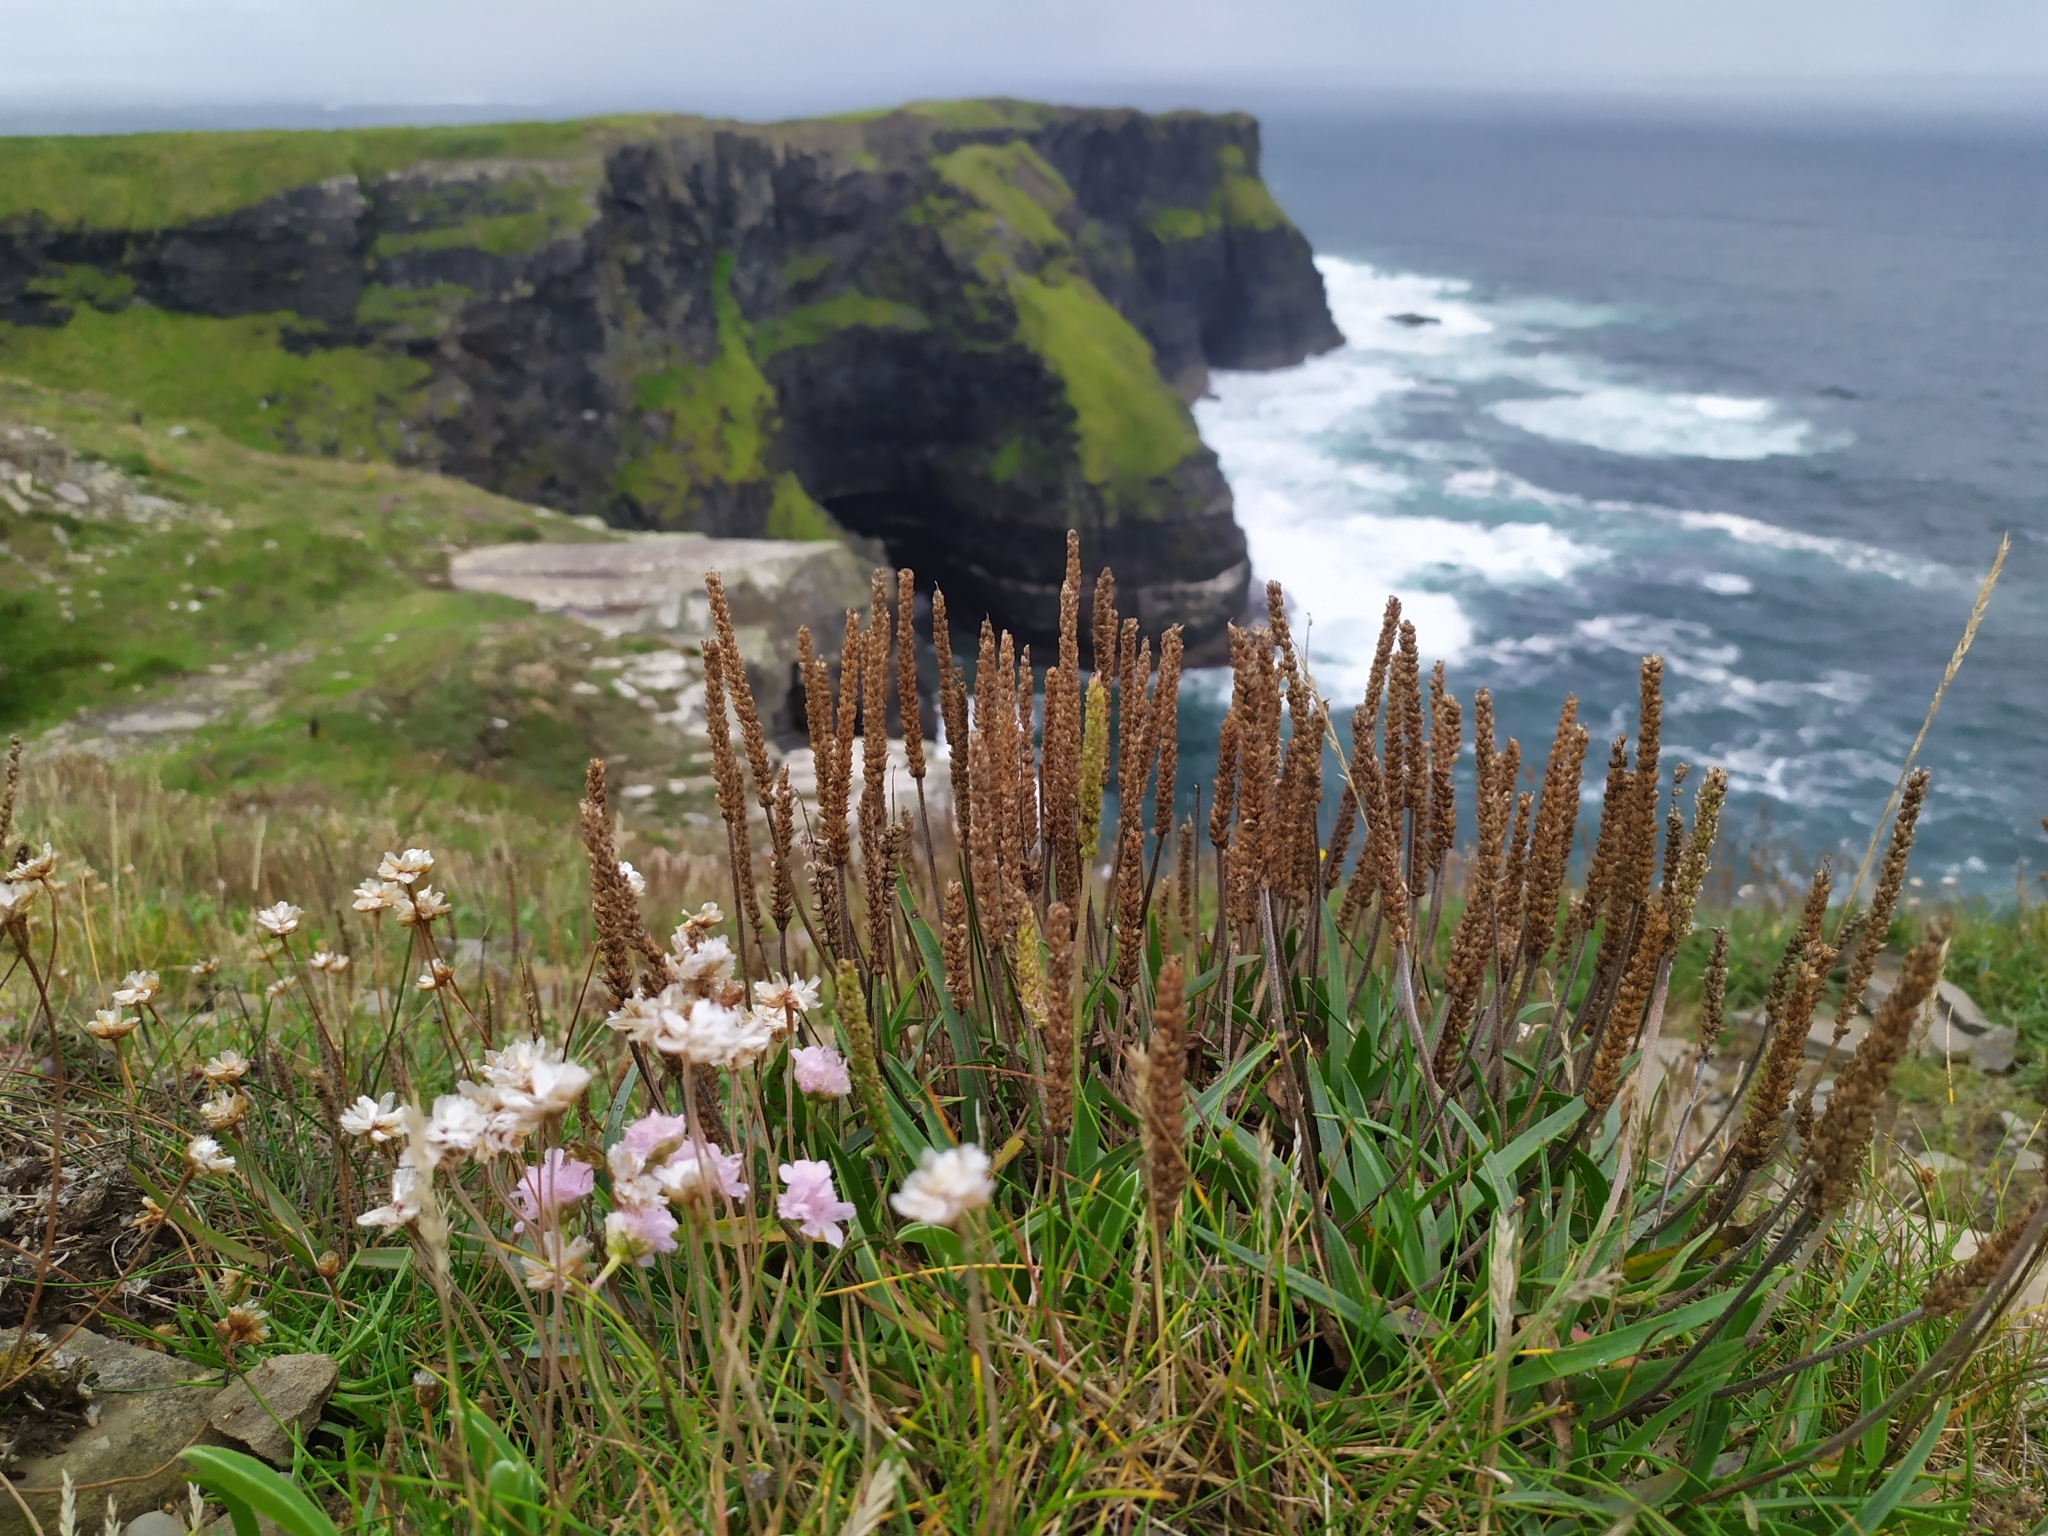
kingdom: Plantae
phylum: Tracheophyta
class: Magnoliopsida
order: Lamiales
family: Plantaginaceae
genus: Plantago
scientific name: Plantago maritima
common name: Sea plantain
